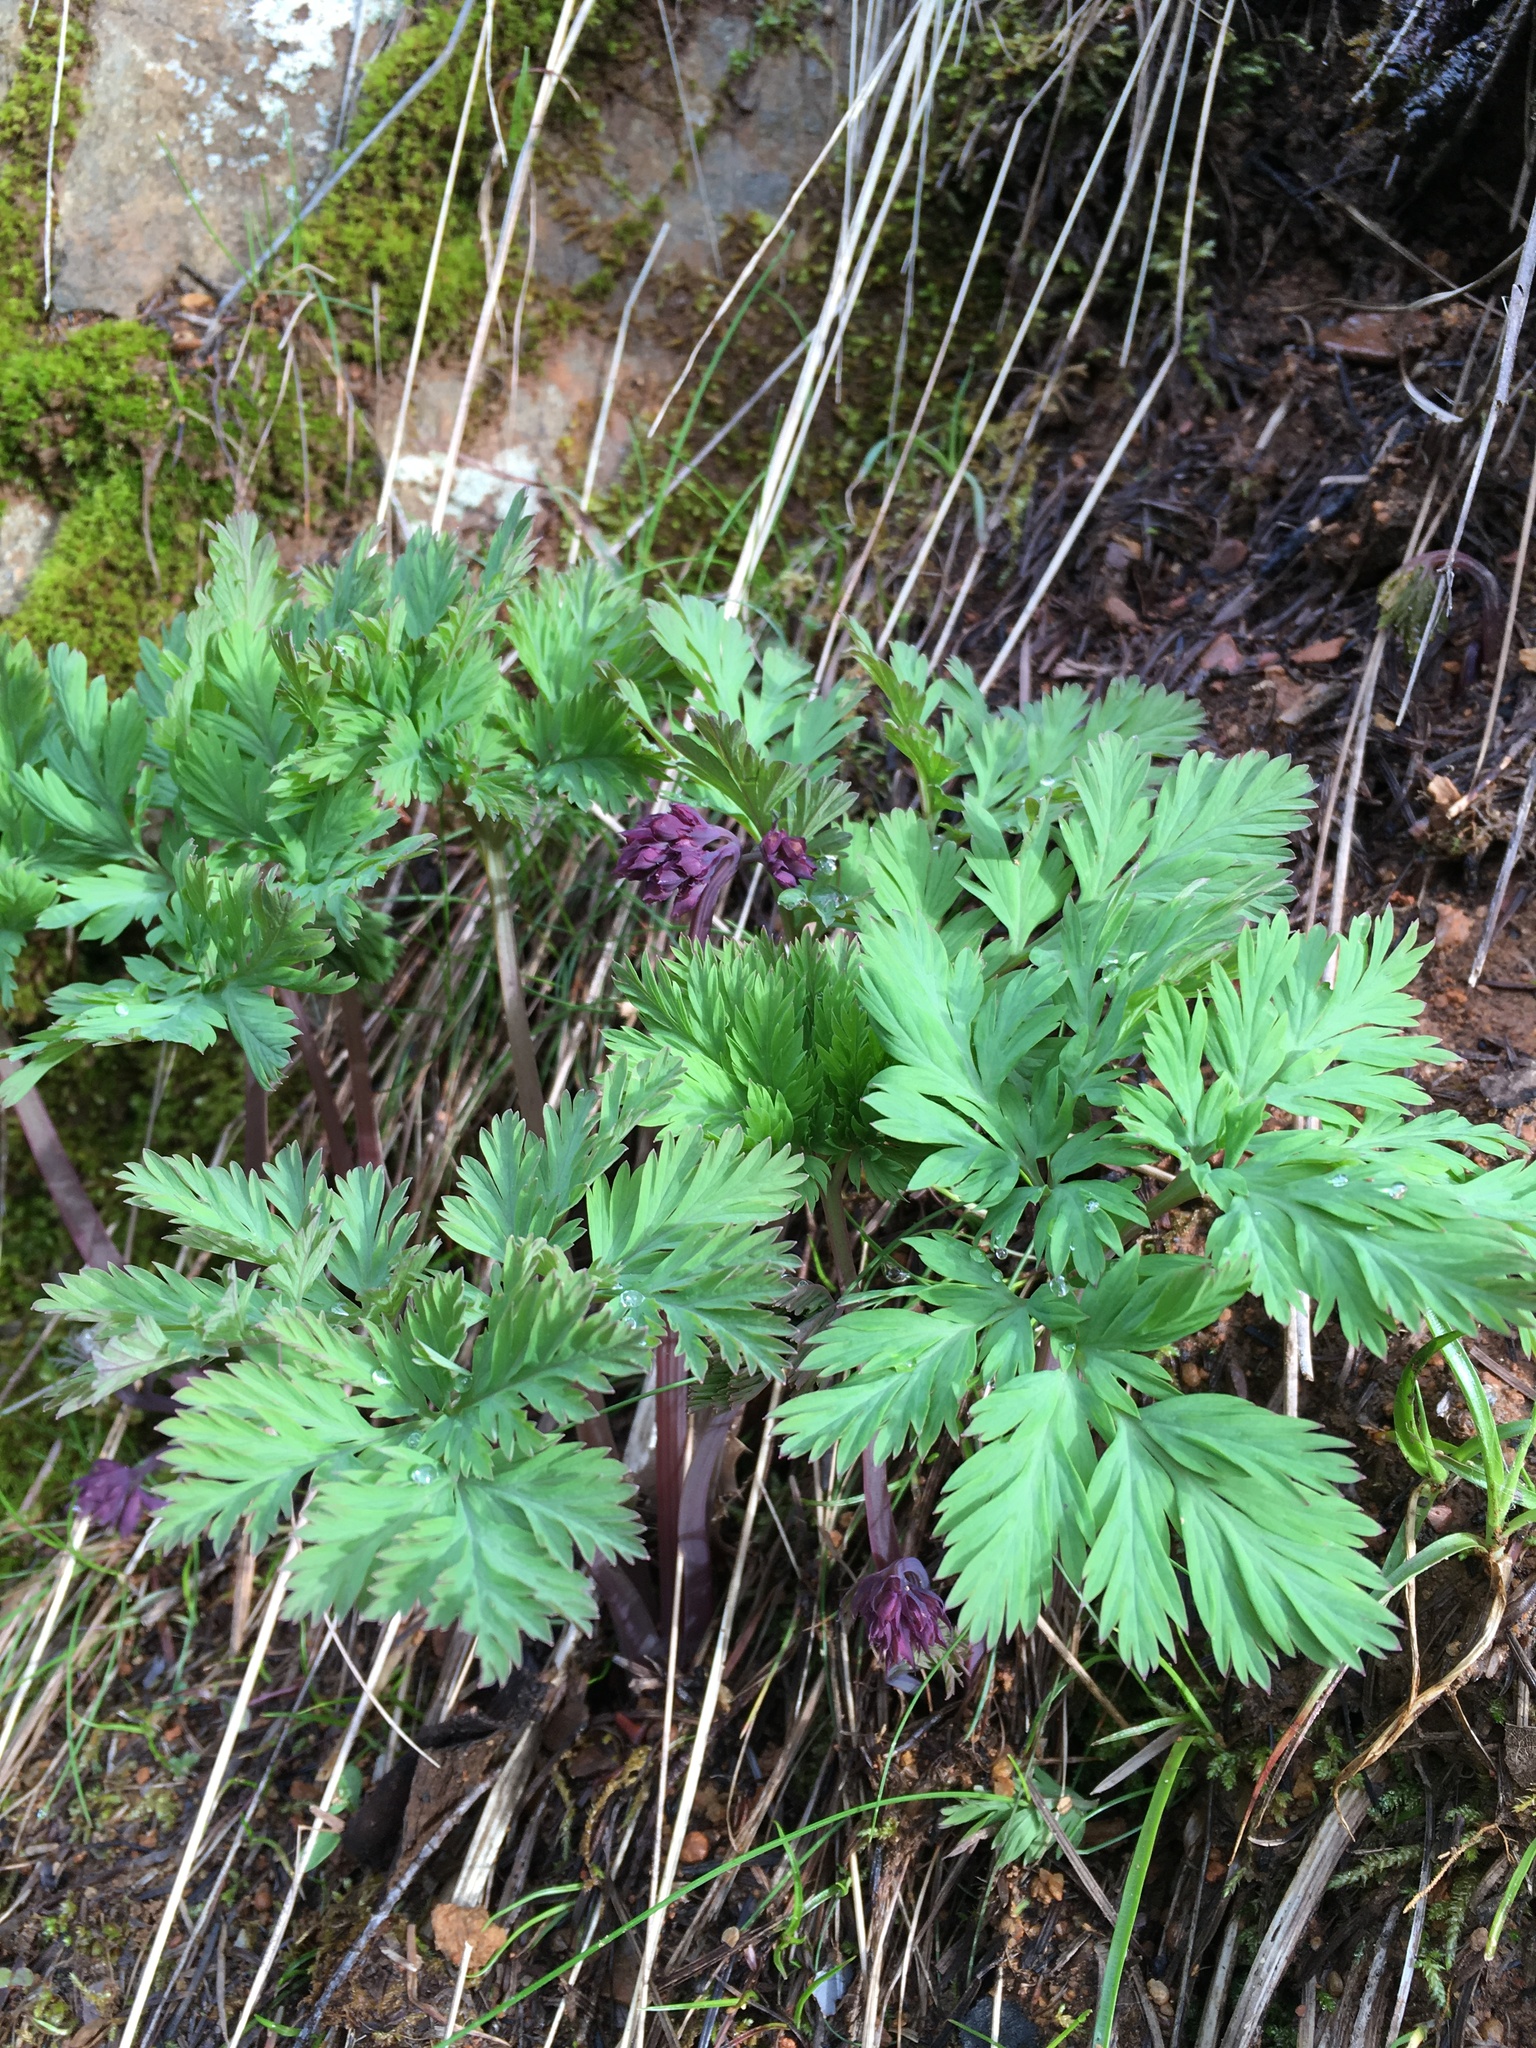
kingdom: Plantae
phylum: Tracheophyta
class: Magnoliopsida
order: Ranunculales
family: Papaveraceae
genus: Dicentra
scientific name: Dicentra formosa
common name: Bleeding-heart
